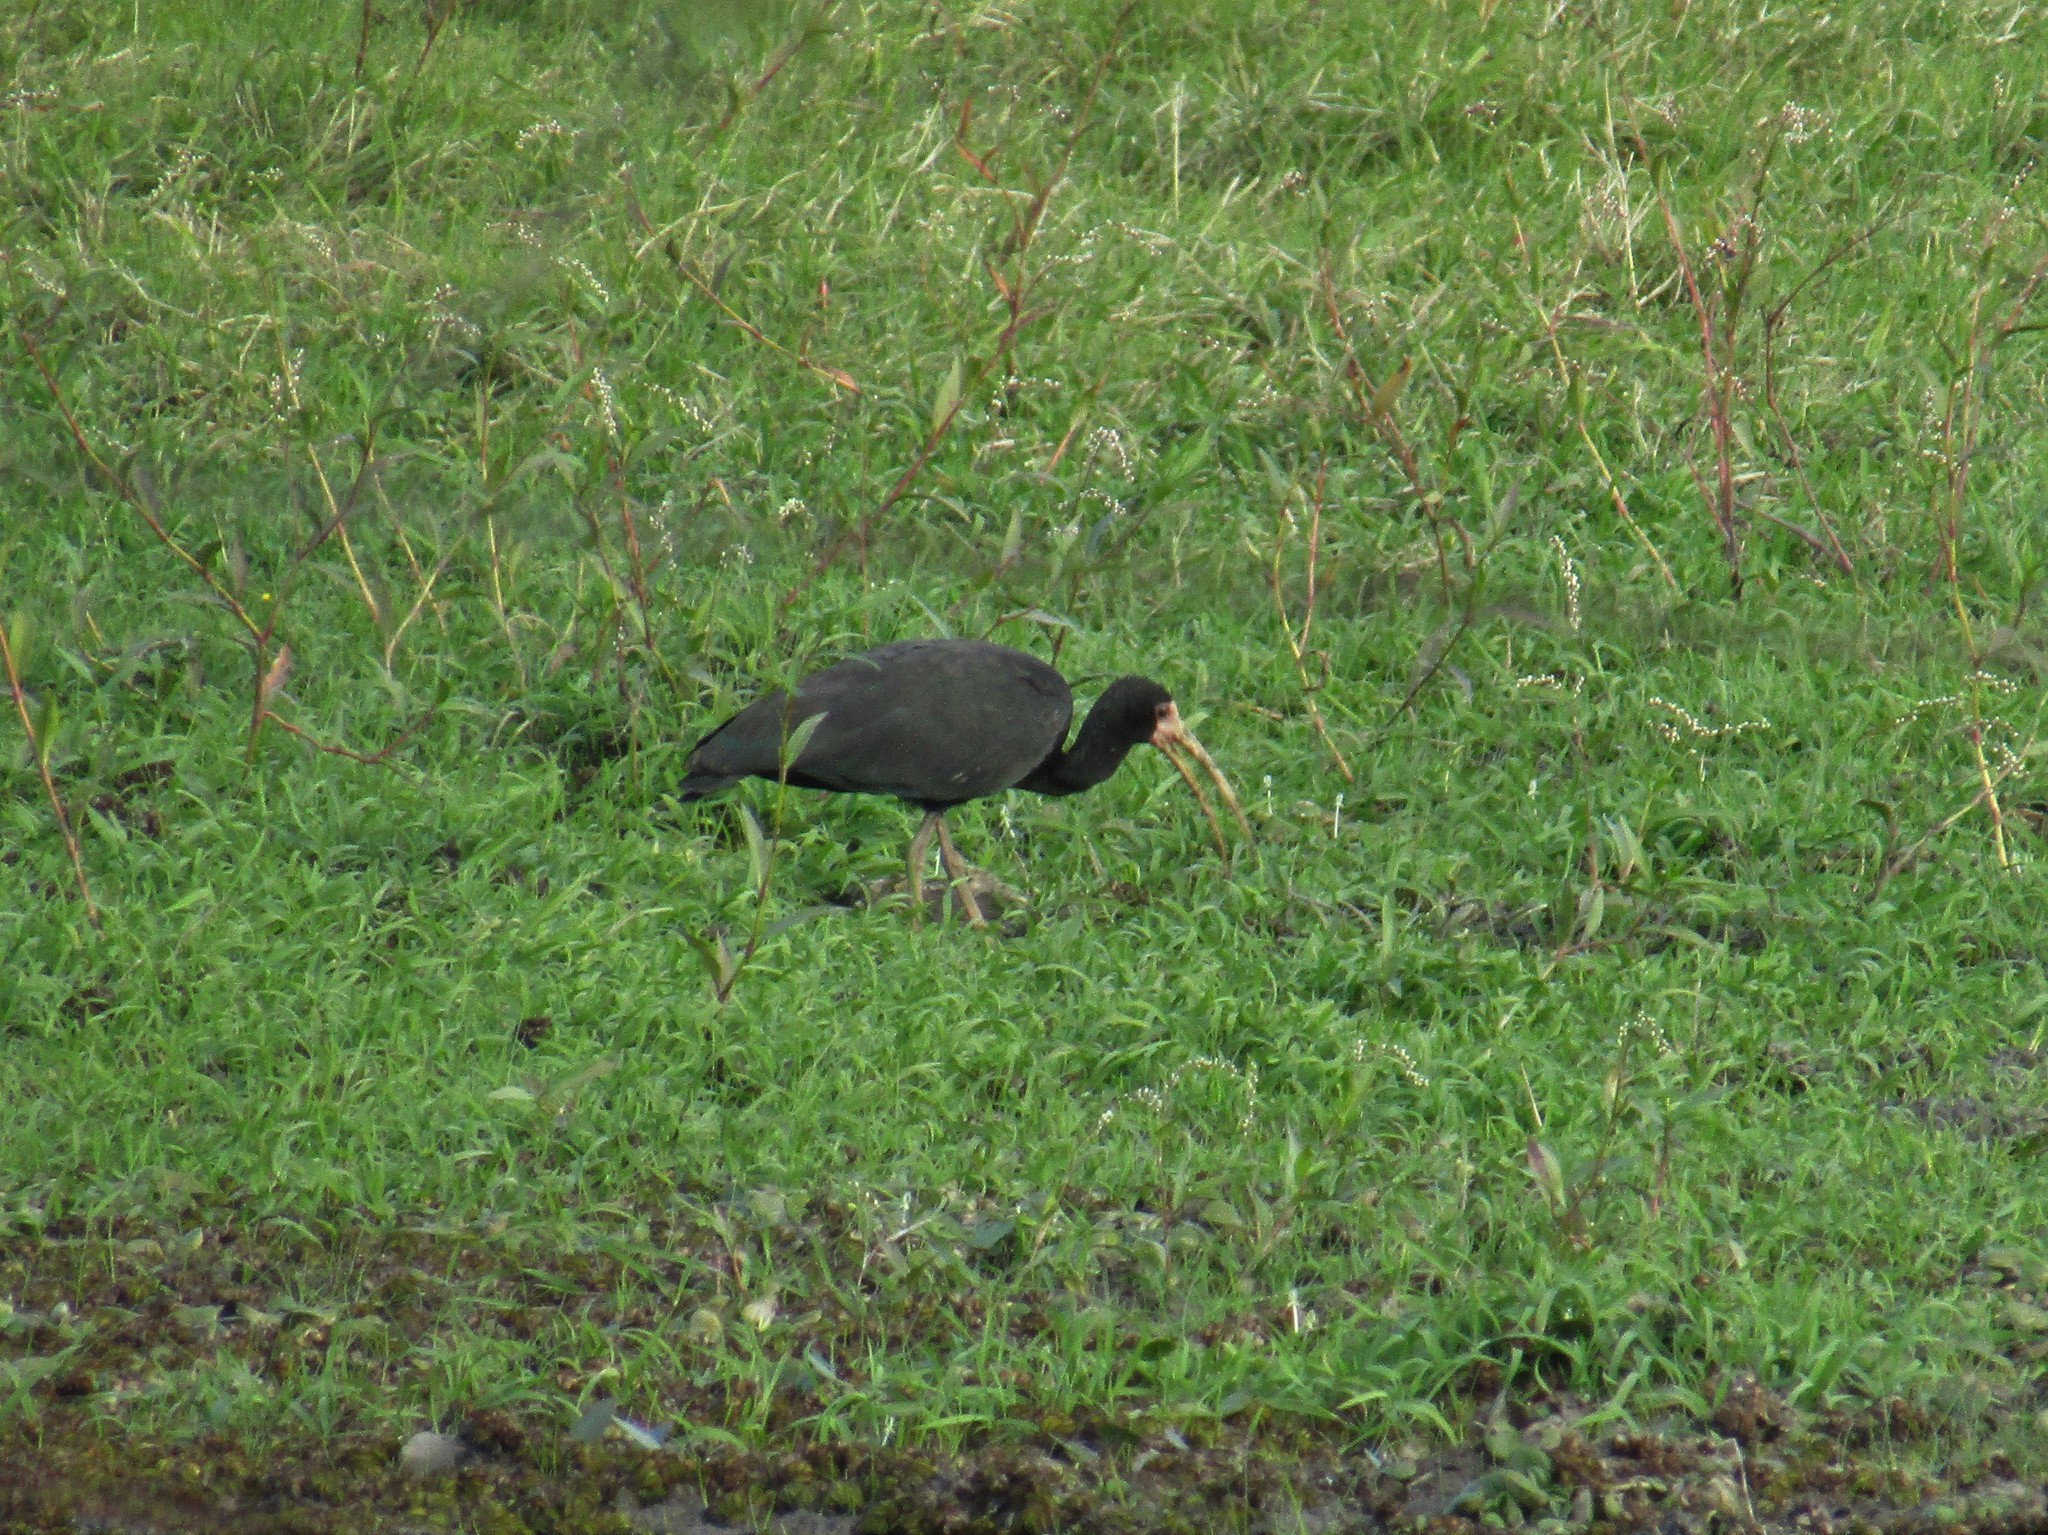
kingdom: Animalia
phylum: Chordata
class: Aves
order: Pelecaniformes
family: Threskiornithidae
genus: Phimosus
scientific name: Phimosus infuscatus
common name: Bare-faced ibis
